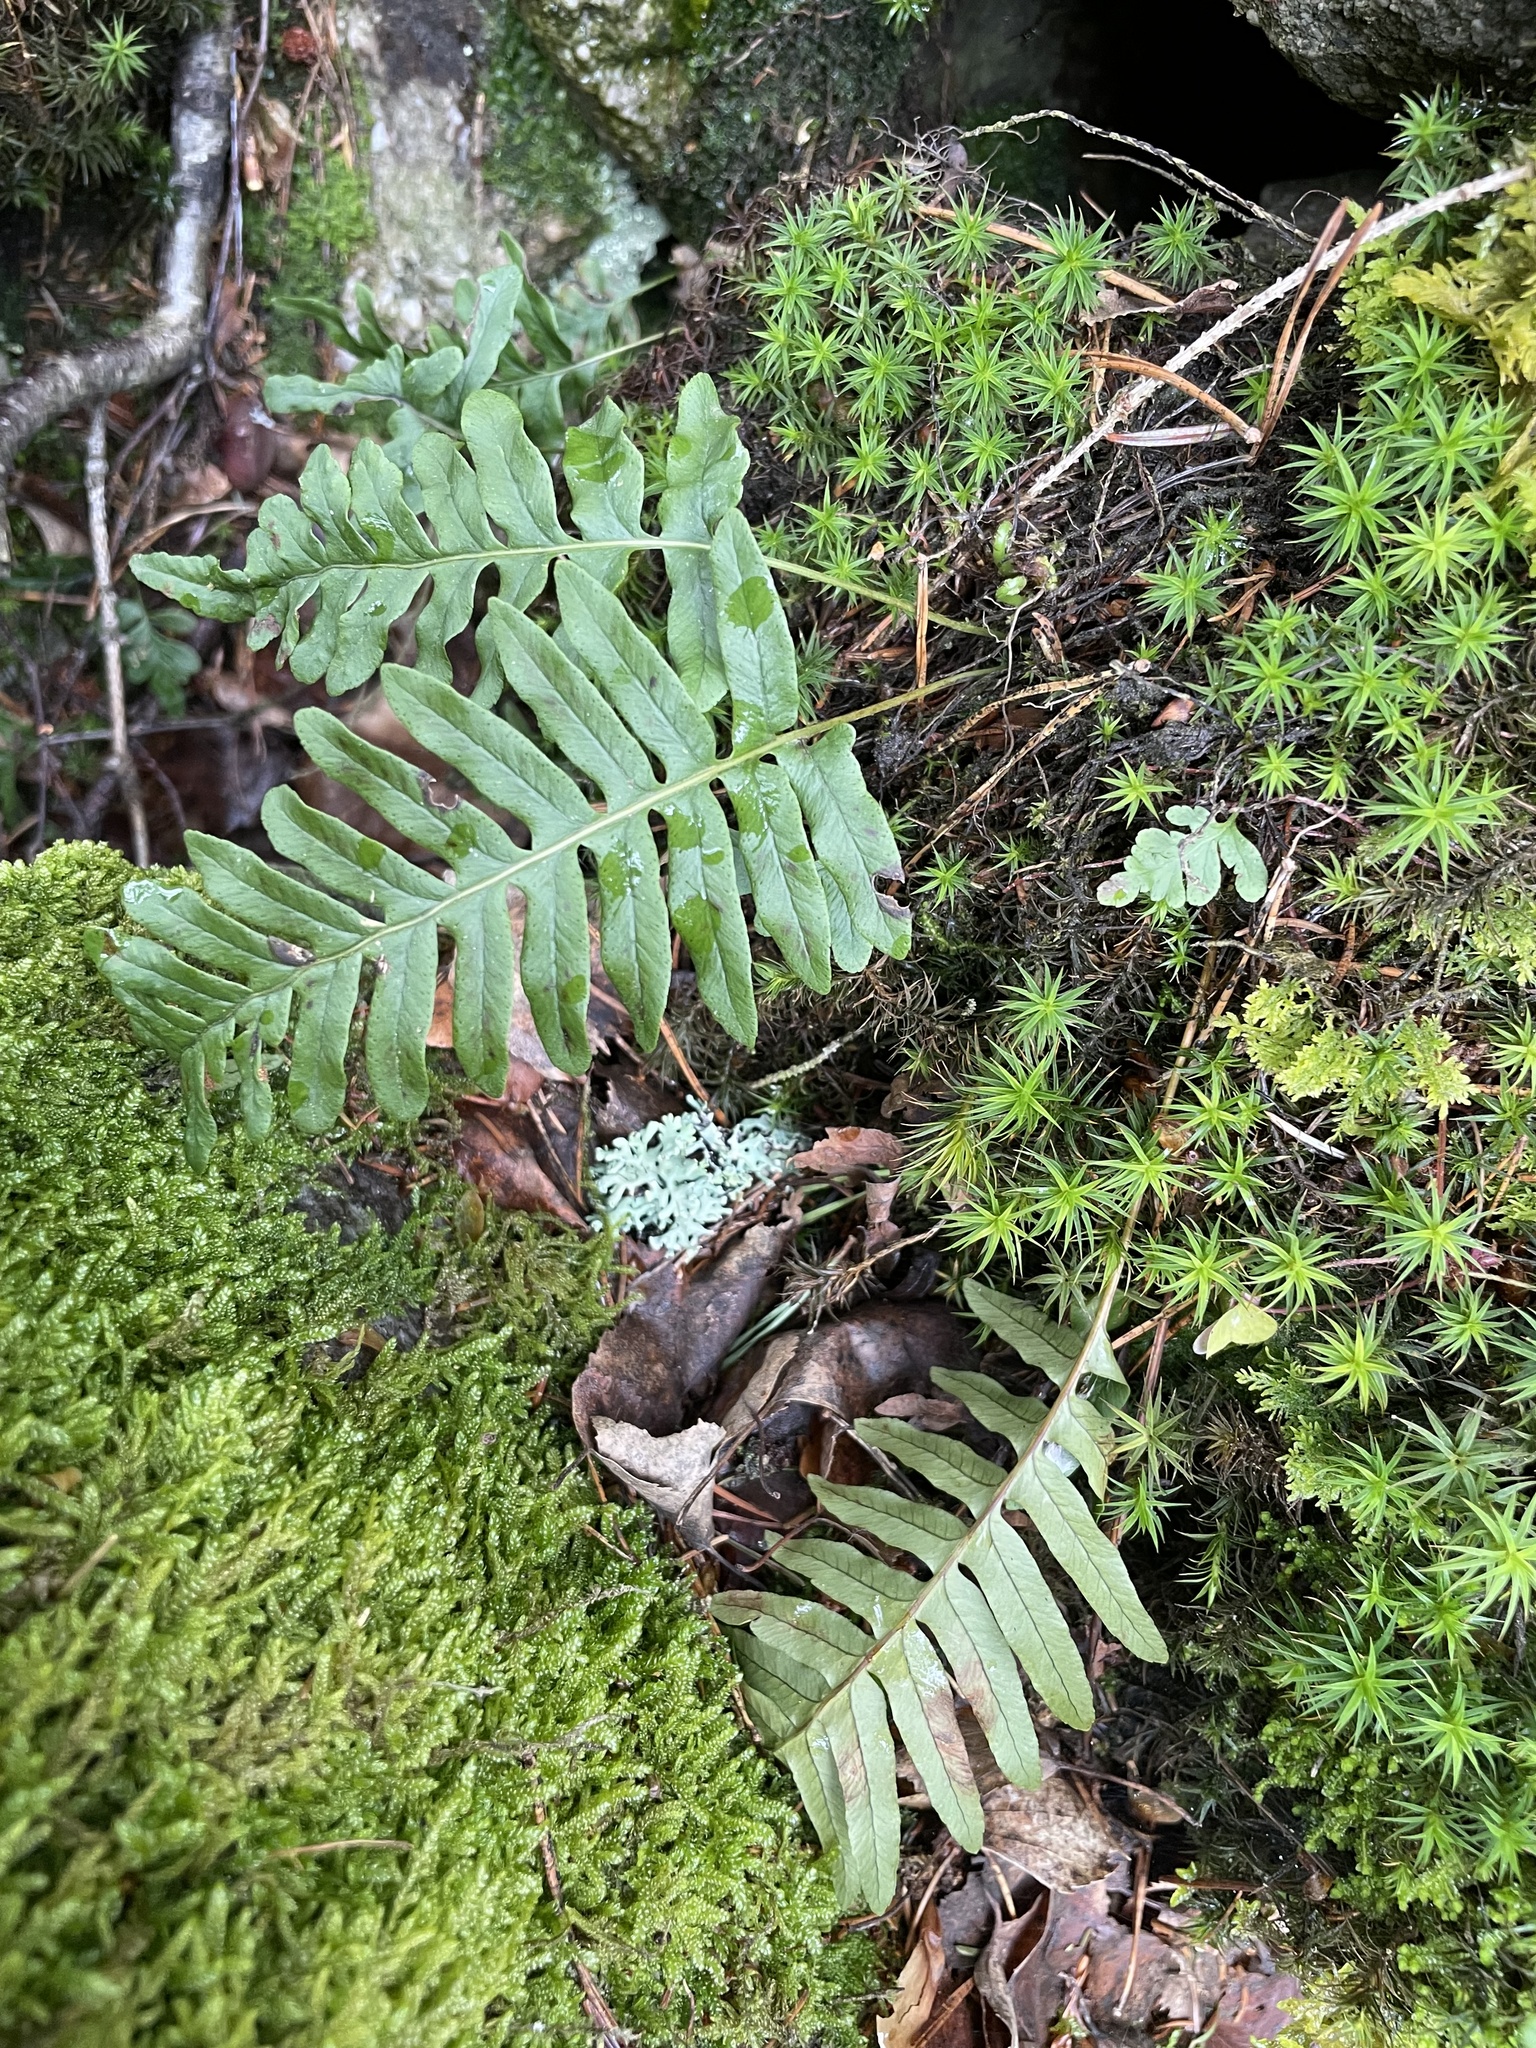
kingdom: Plantae
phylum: Tracheophyta
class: Polypodiopsida
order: Polypodiales
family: Polypodiaceae
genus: Polypodium
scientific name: Polypodium vulgare
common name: Common polypody
